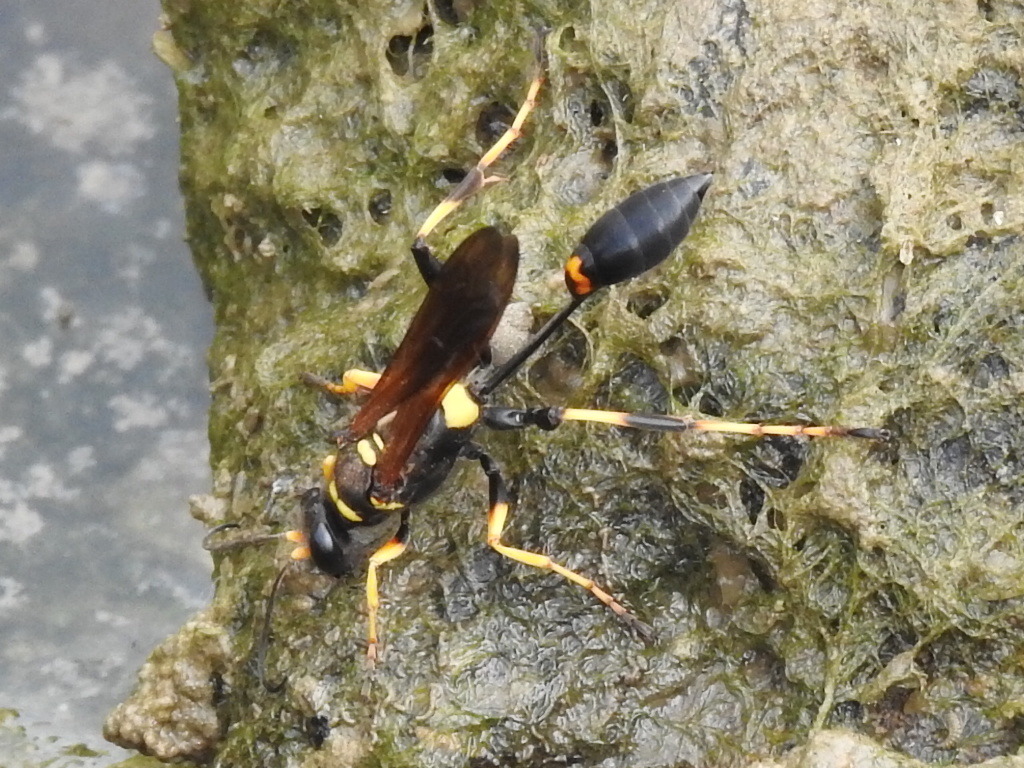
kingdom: Animalia
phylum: Arthropoda
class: Insecta
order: Hymenoptera
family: Sphecidae
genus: Sceliphron
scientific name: Sceliphron caementarium
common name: Mud dauber
